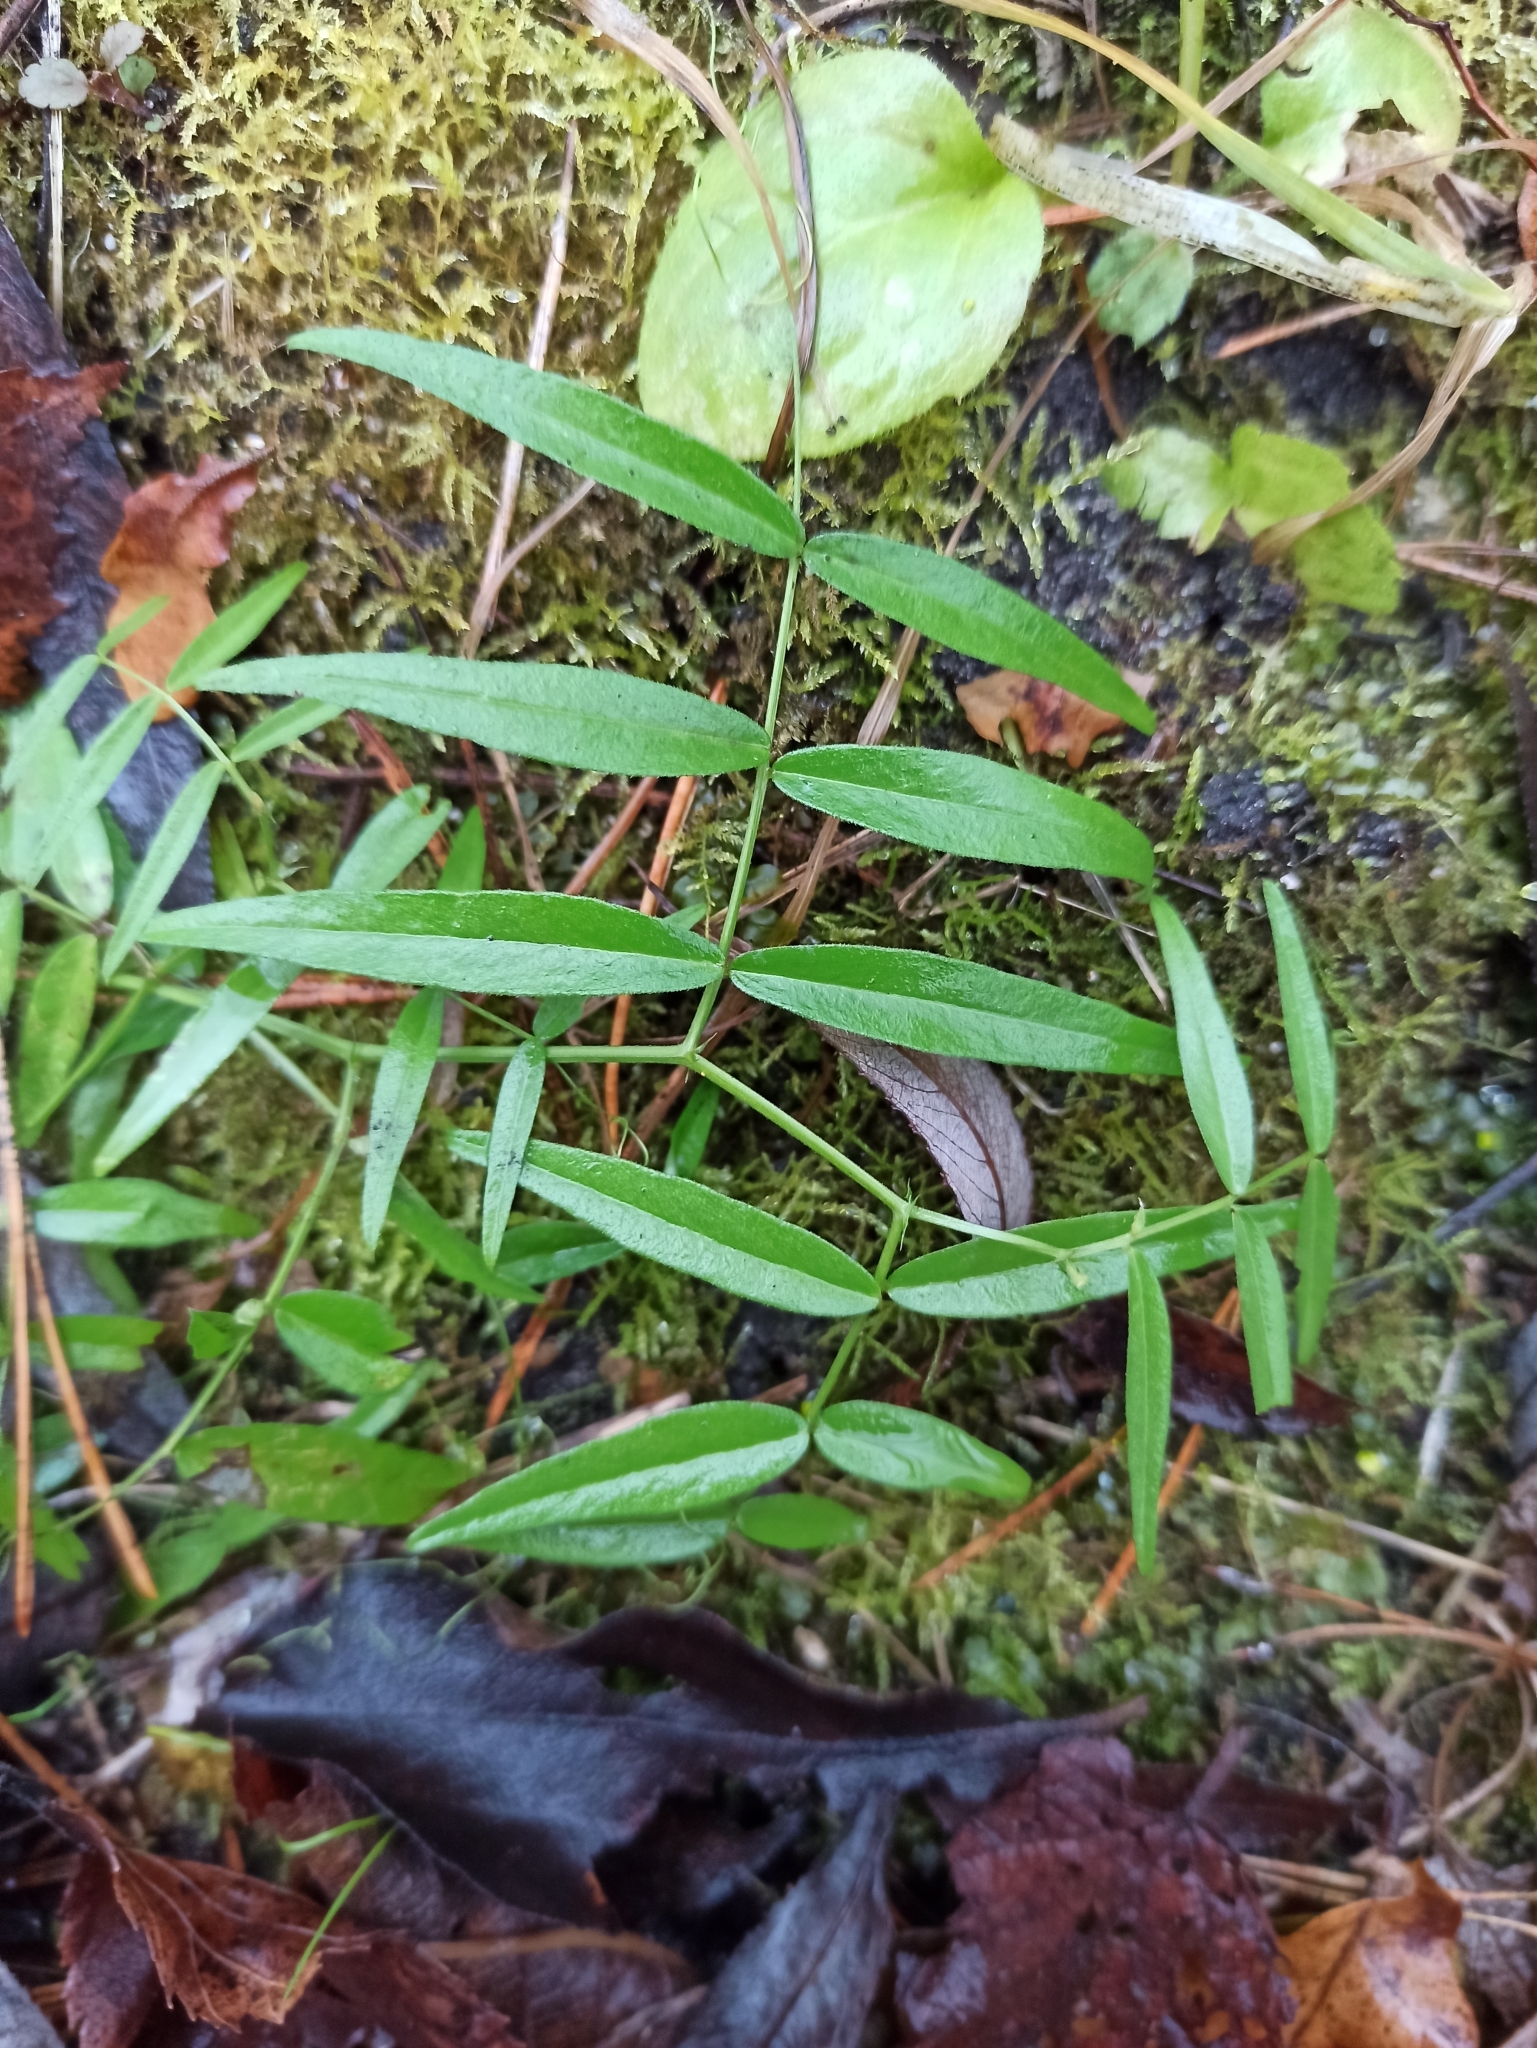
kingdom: Plantae
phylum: Tracheophyta
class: Magnoliopsida
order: Fabales
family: Fabaceae
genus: Vicia
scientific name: Vicia sepium
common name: Bush vetch
